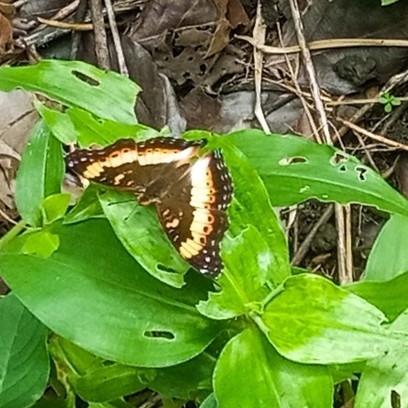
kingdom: Animalia
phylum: Arthropoda
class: Insecta
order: Lepidoptera
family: Nymphalidae
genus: Precis
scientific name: Precis pelarga
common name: Fashion commodore
